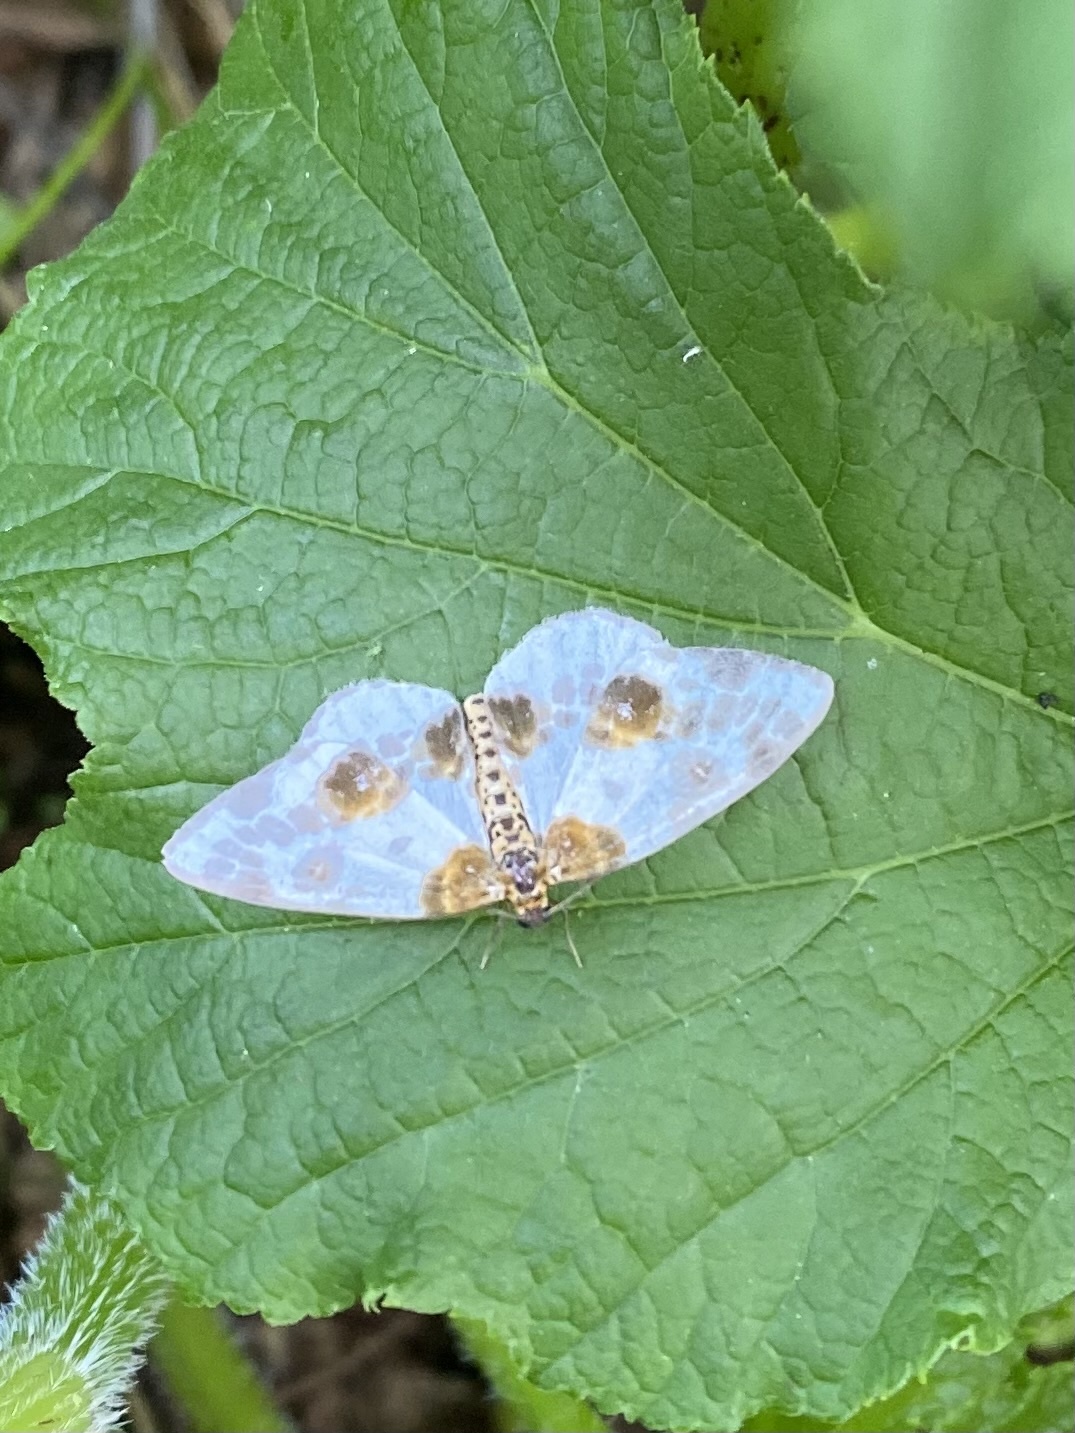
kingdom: Animalia
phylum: Arthropoda
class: Insecta
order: Lepidoptera
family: Geometridae
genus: Abraxas
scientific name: Abraxas sylvata
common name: Clouded magpie
